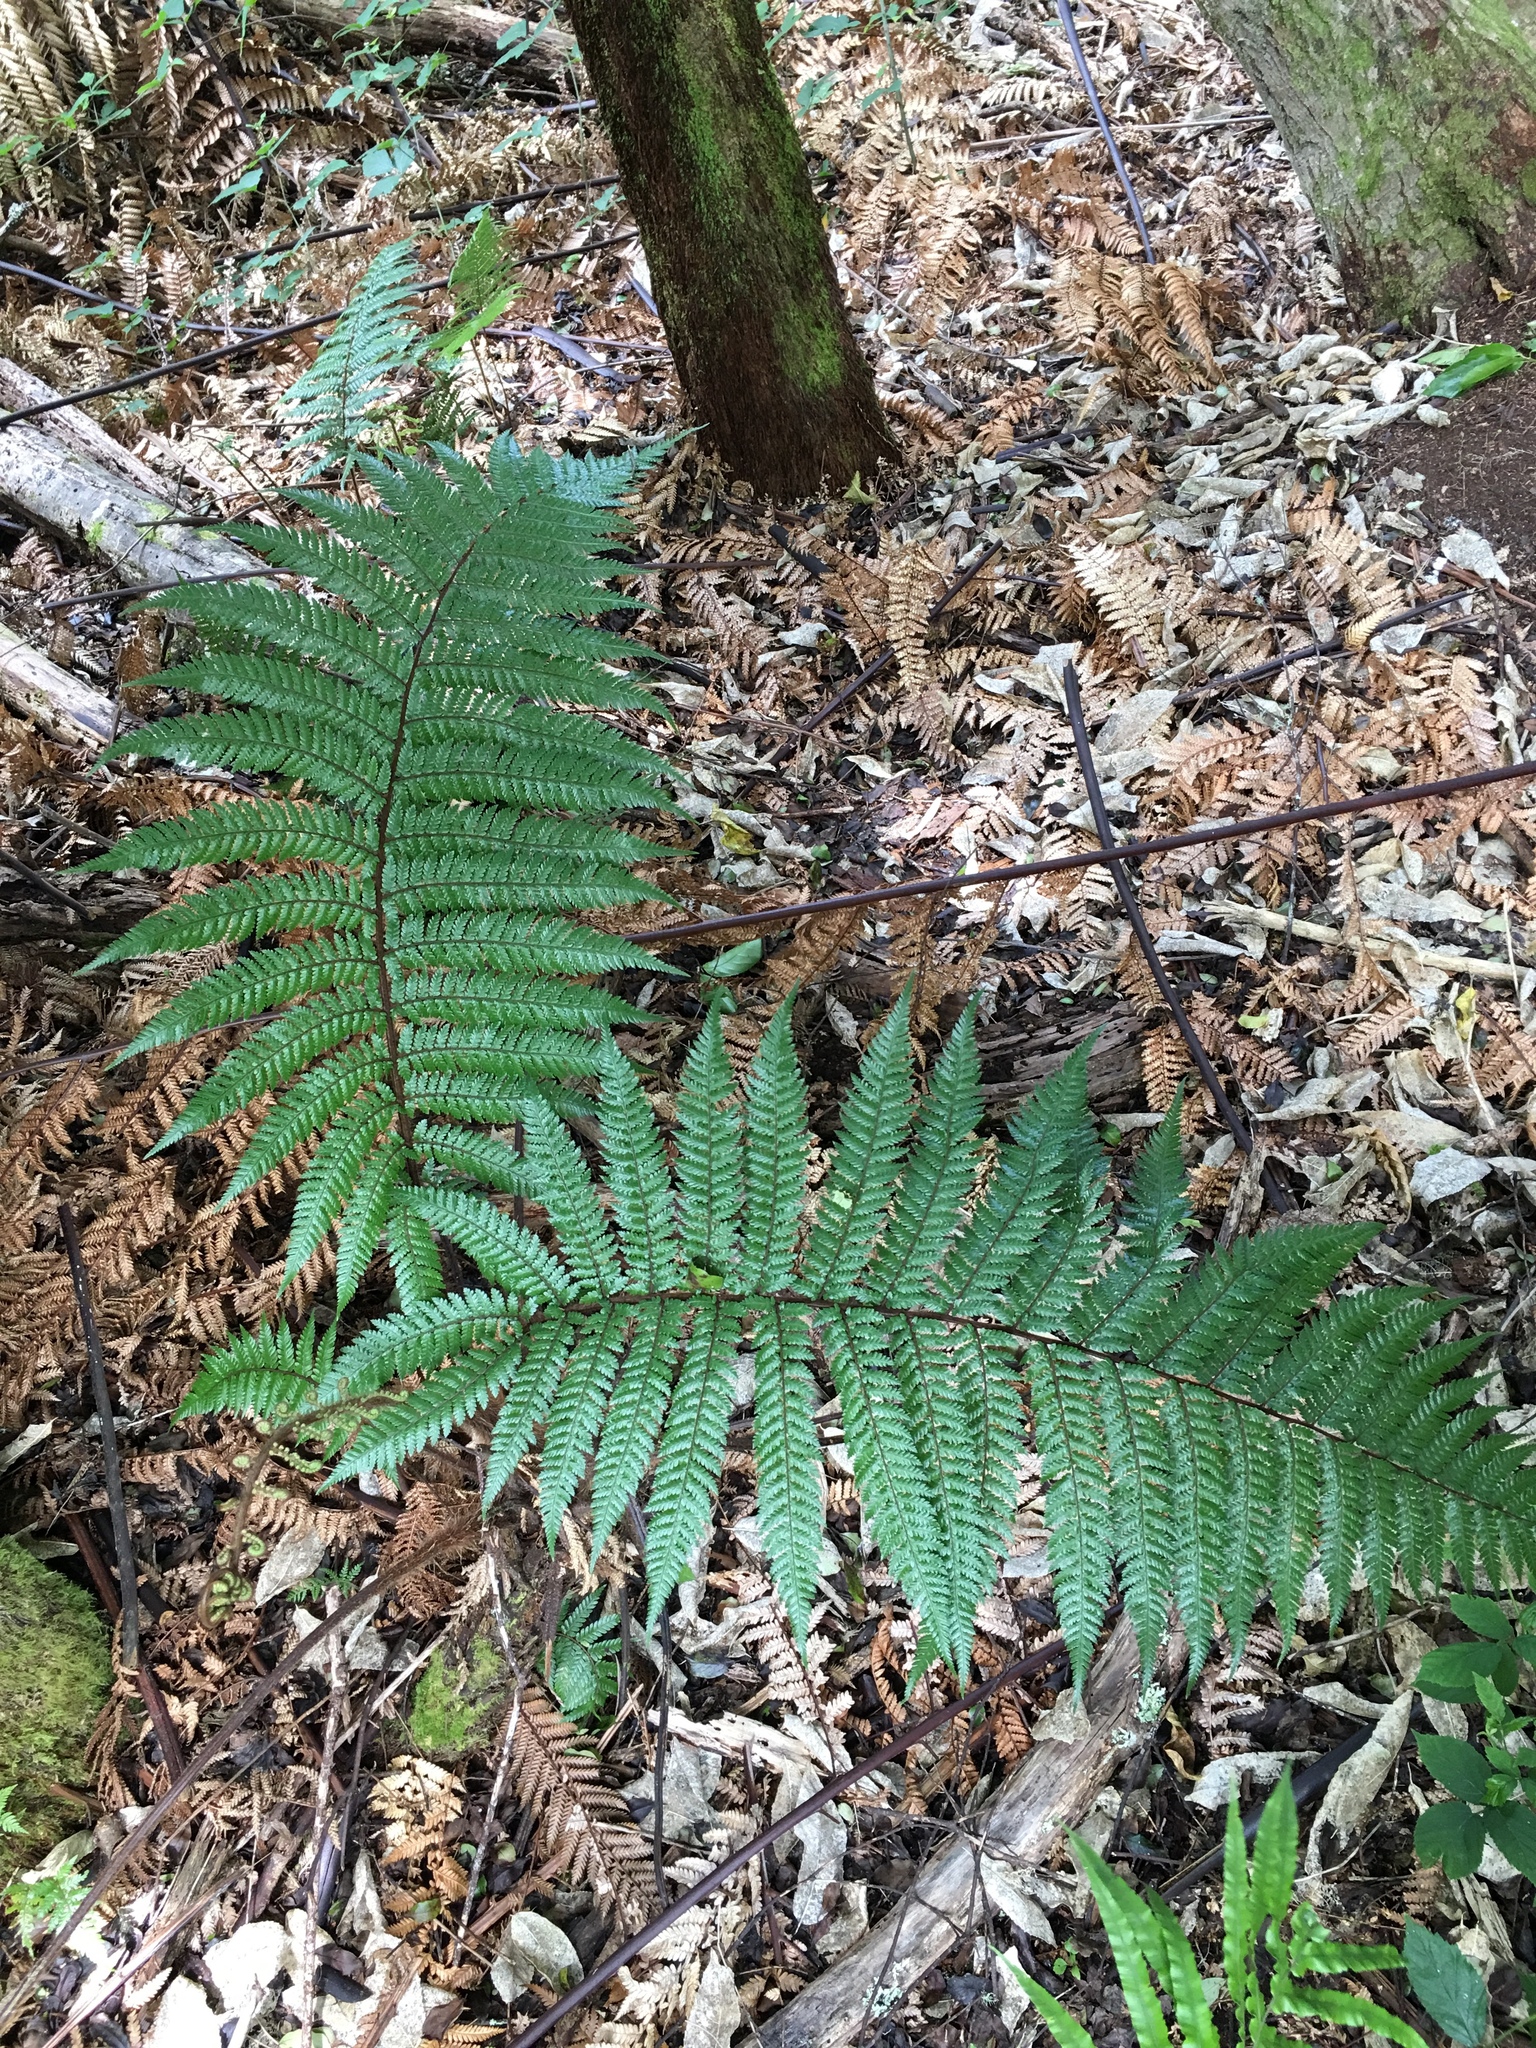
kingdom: Plantae
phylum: Tracheophyta
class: Polypodiopsida
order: Cyatheales
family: Dicksoniaceae
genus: Dicksonia
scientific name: Dicksonia squarrosa
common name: Hard treefern
